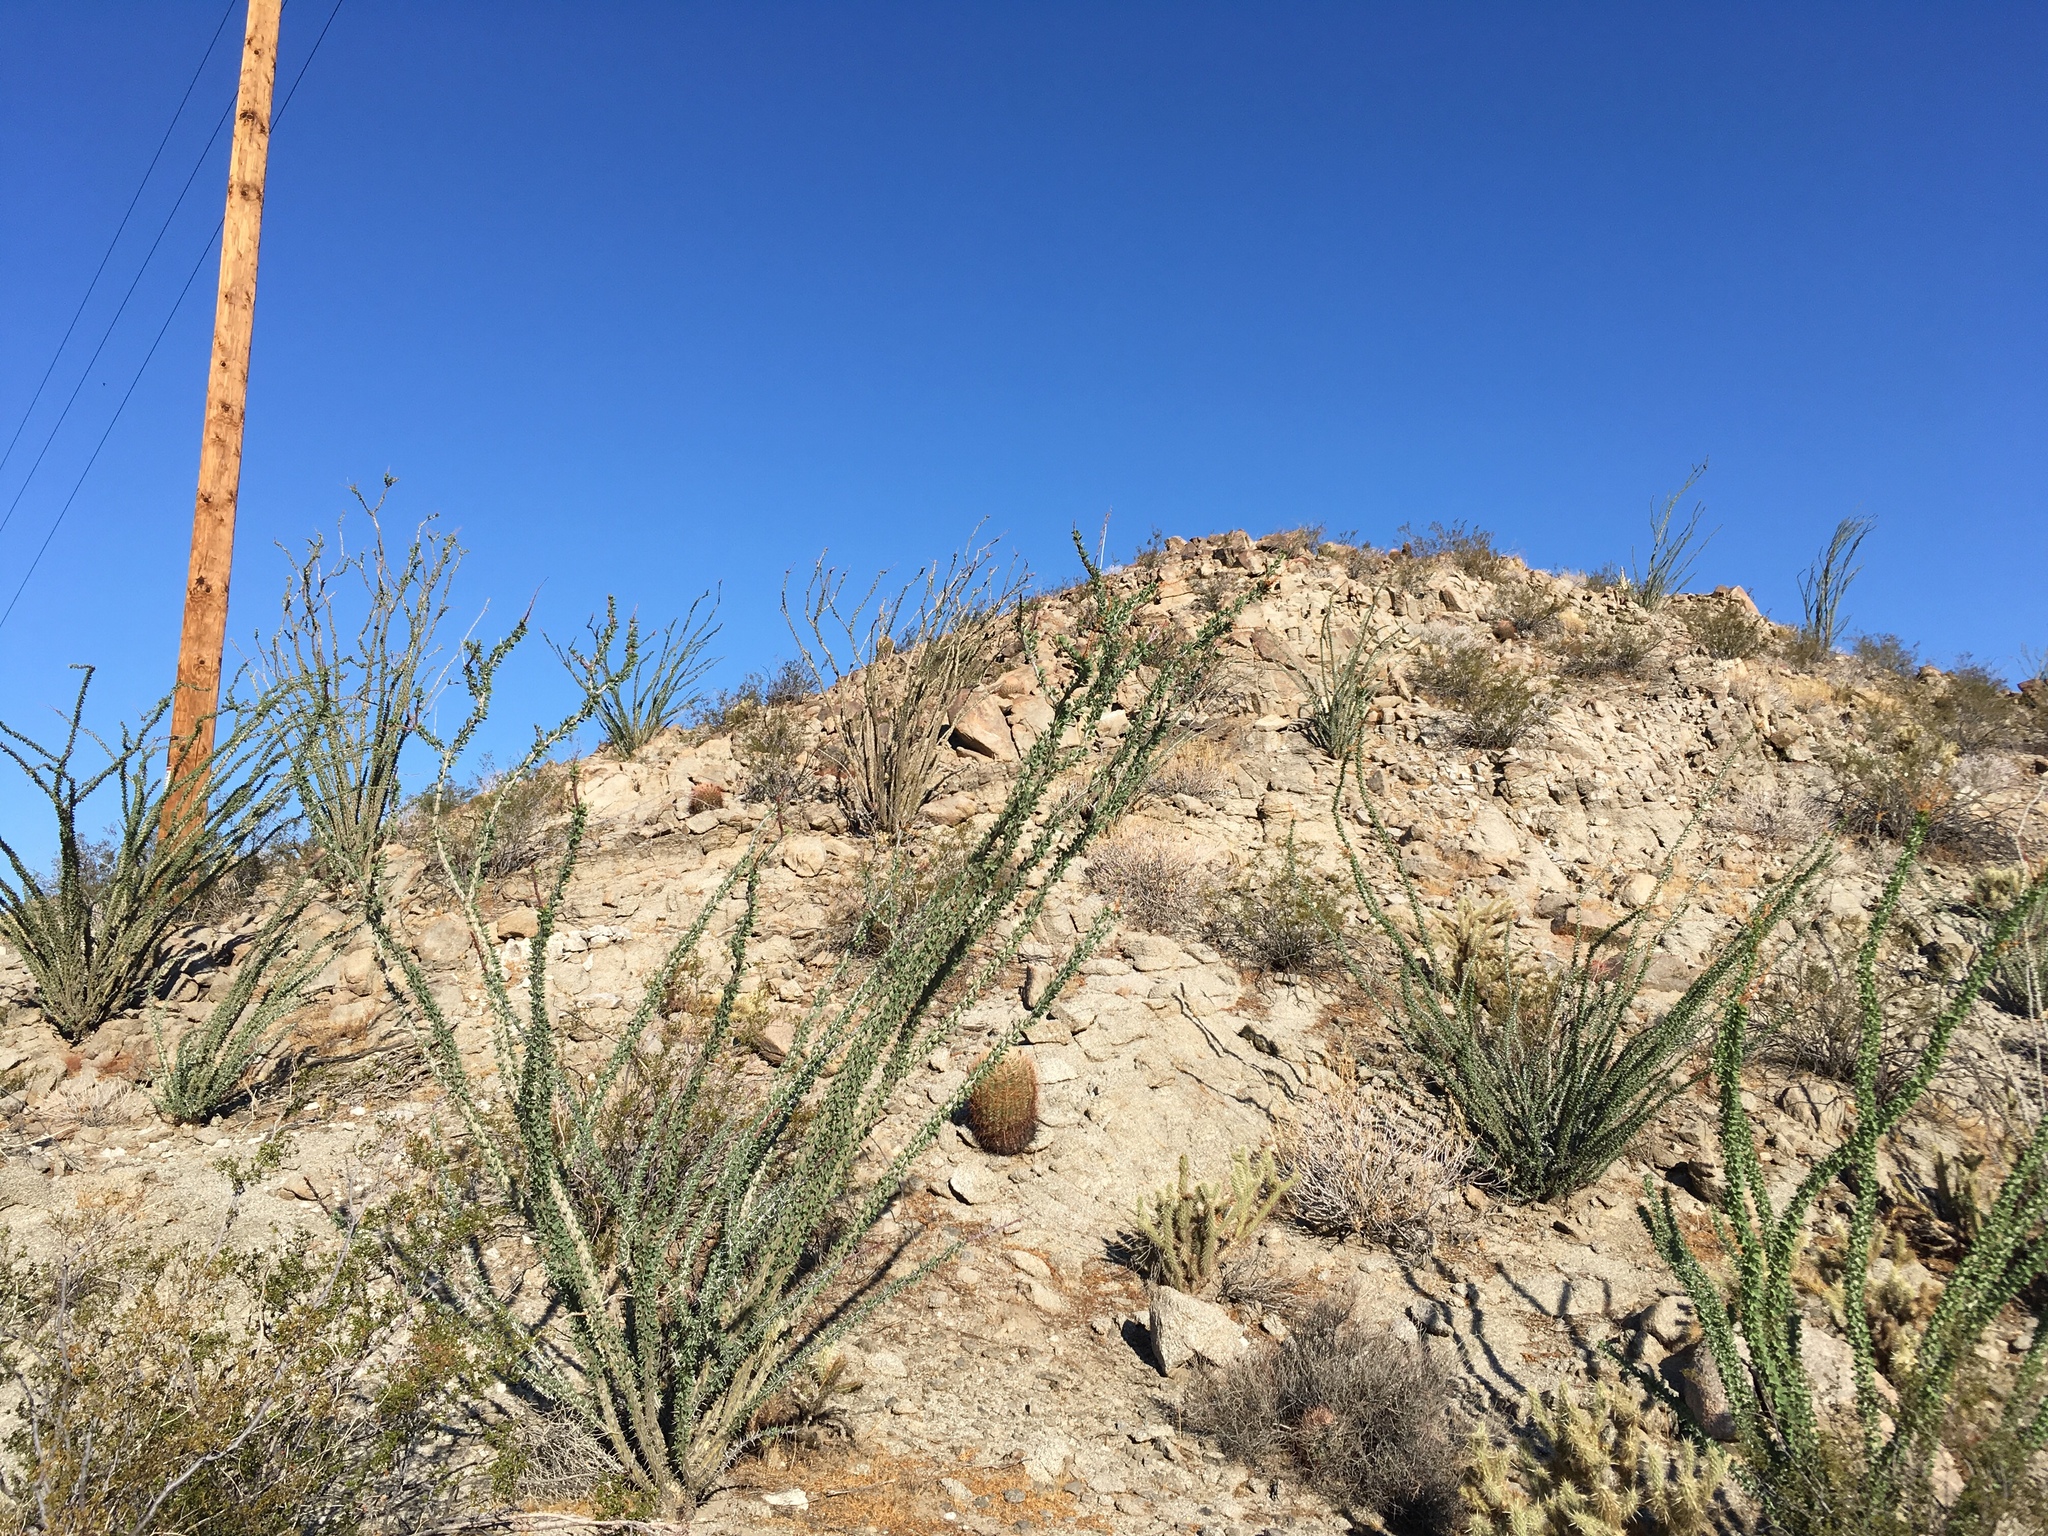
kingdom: Plantae
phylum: Tracheophyta
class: Magnoliopsida
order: Ericales
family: Fouquieriaceae
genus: Fouquieria
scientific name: Fouquieria splendens
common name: Vine-cactus
